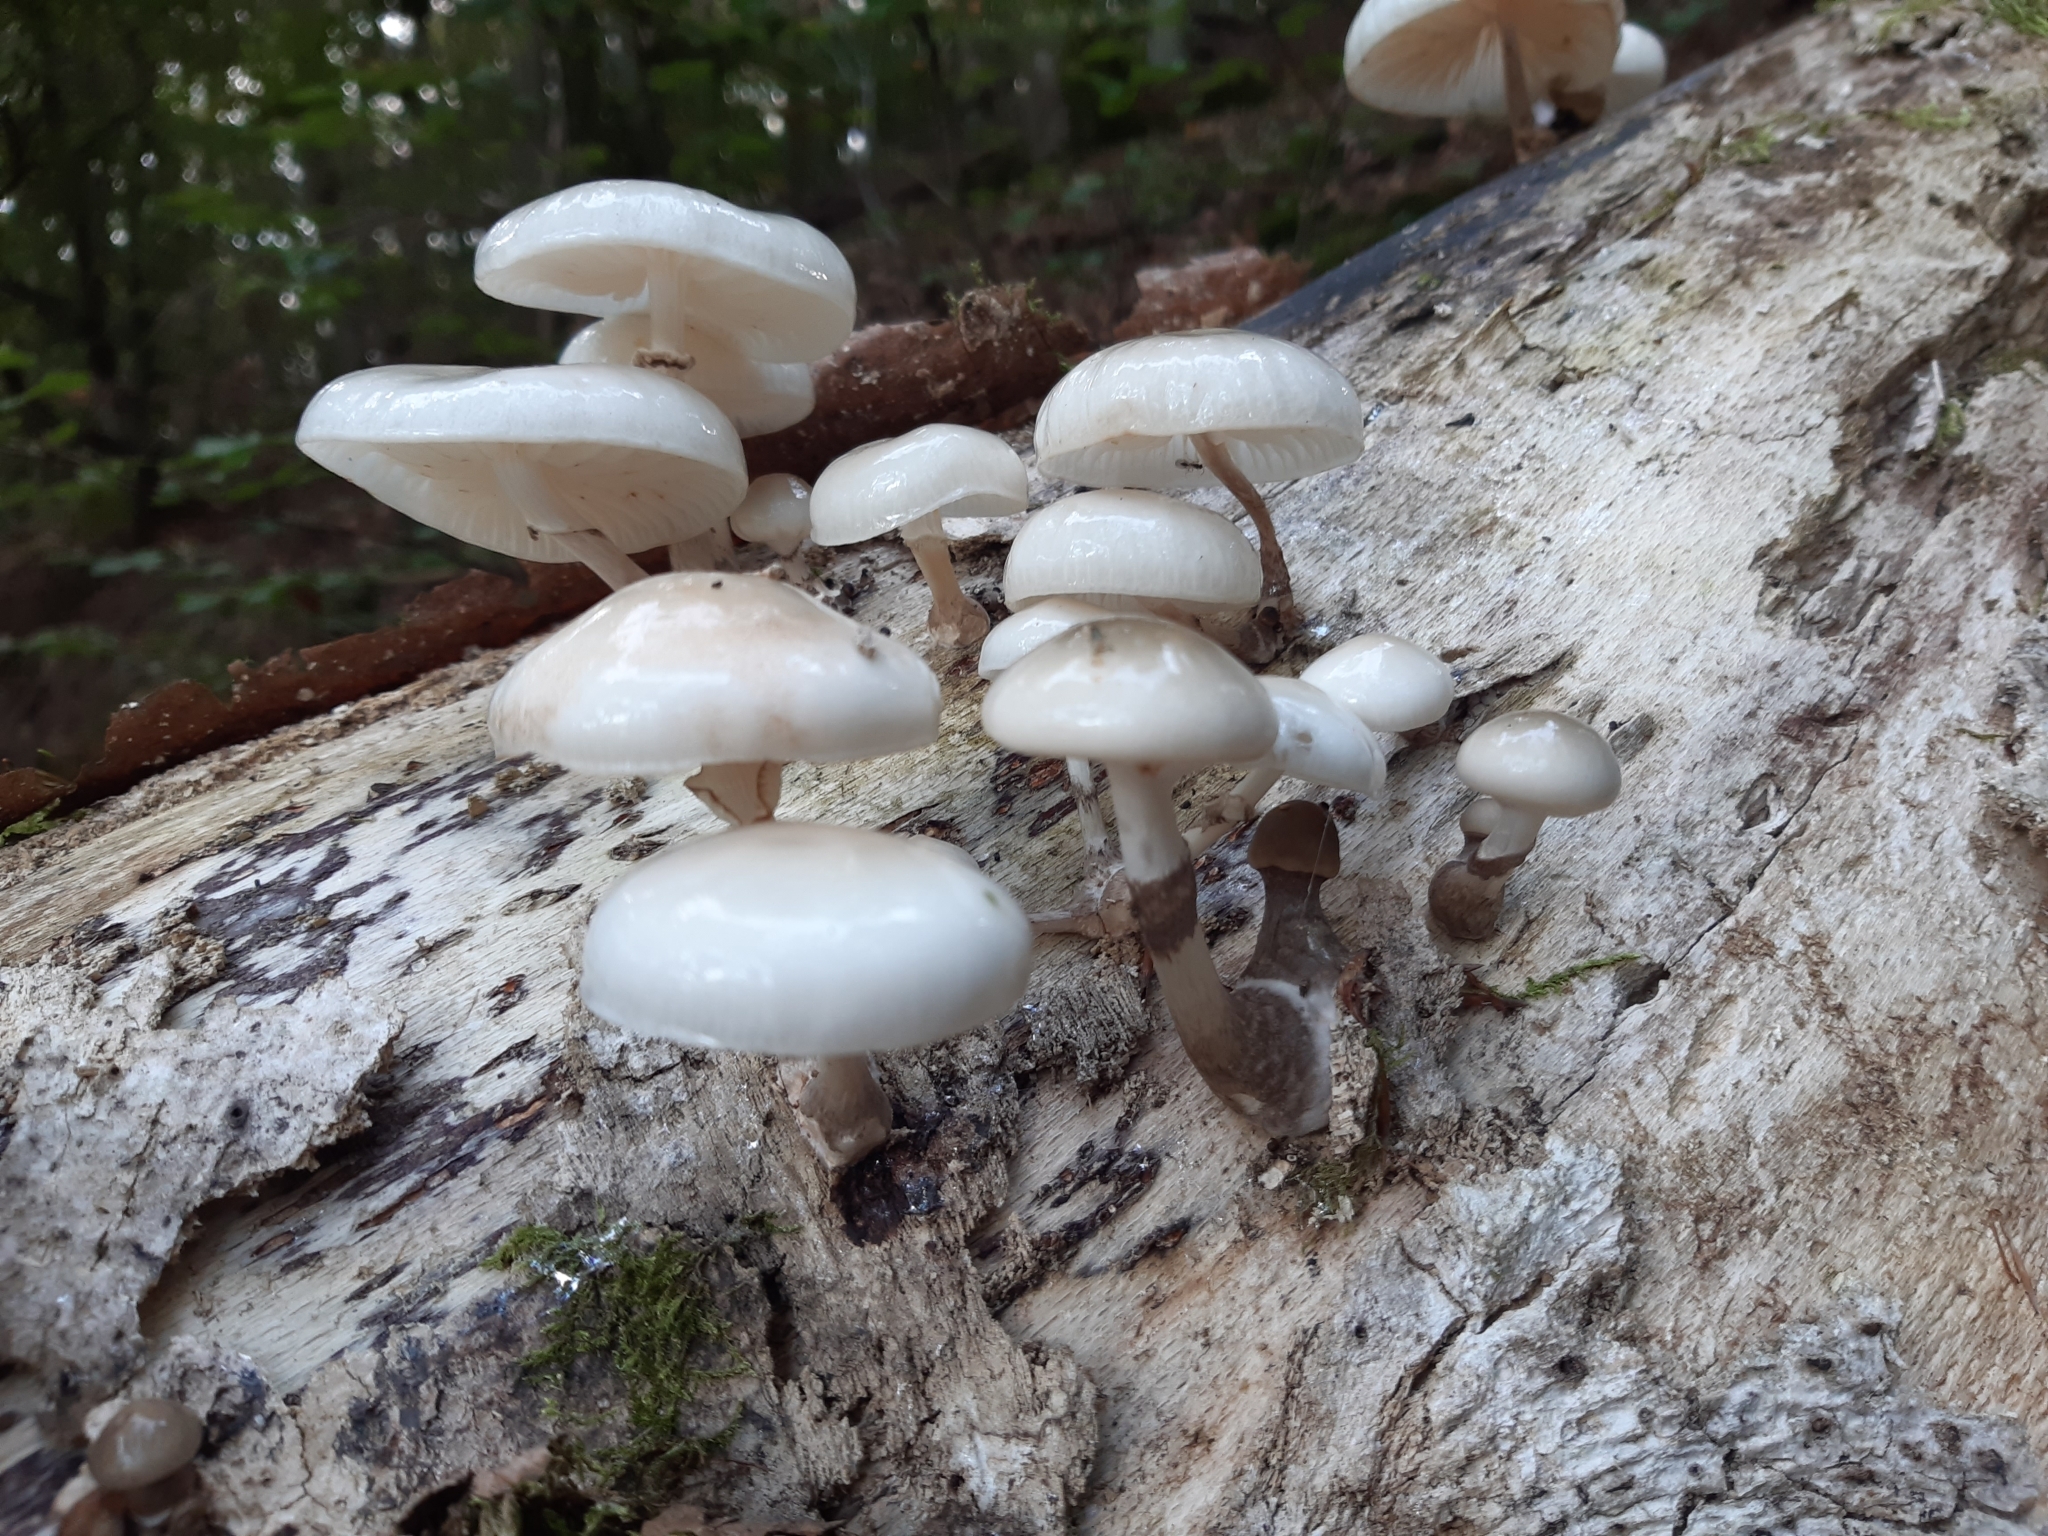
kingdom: Fungi
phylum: Basidiomycota
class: Agaricomycetes
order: Agaricales
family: Physalacriaceae
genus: Mucidula
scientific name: Mucidula mucida
